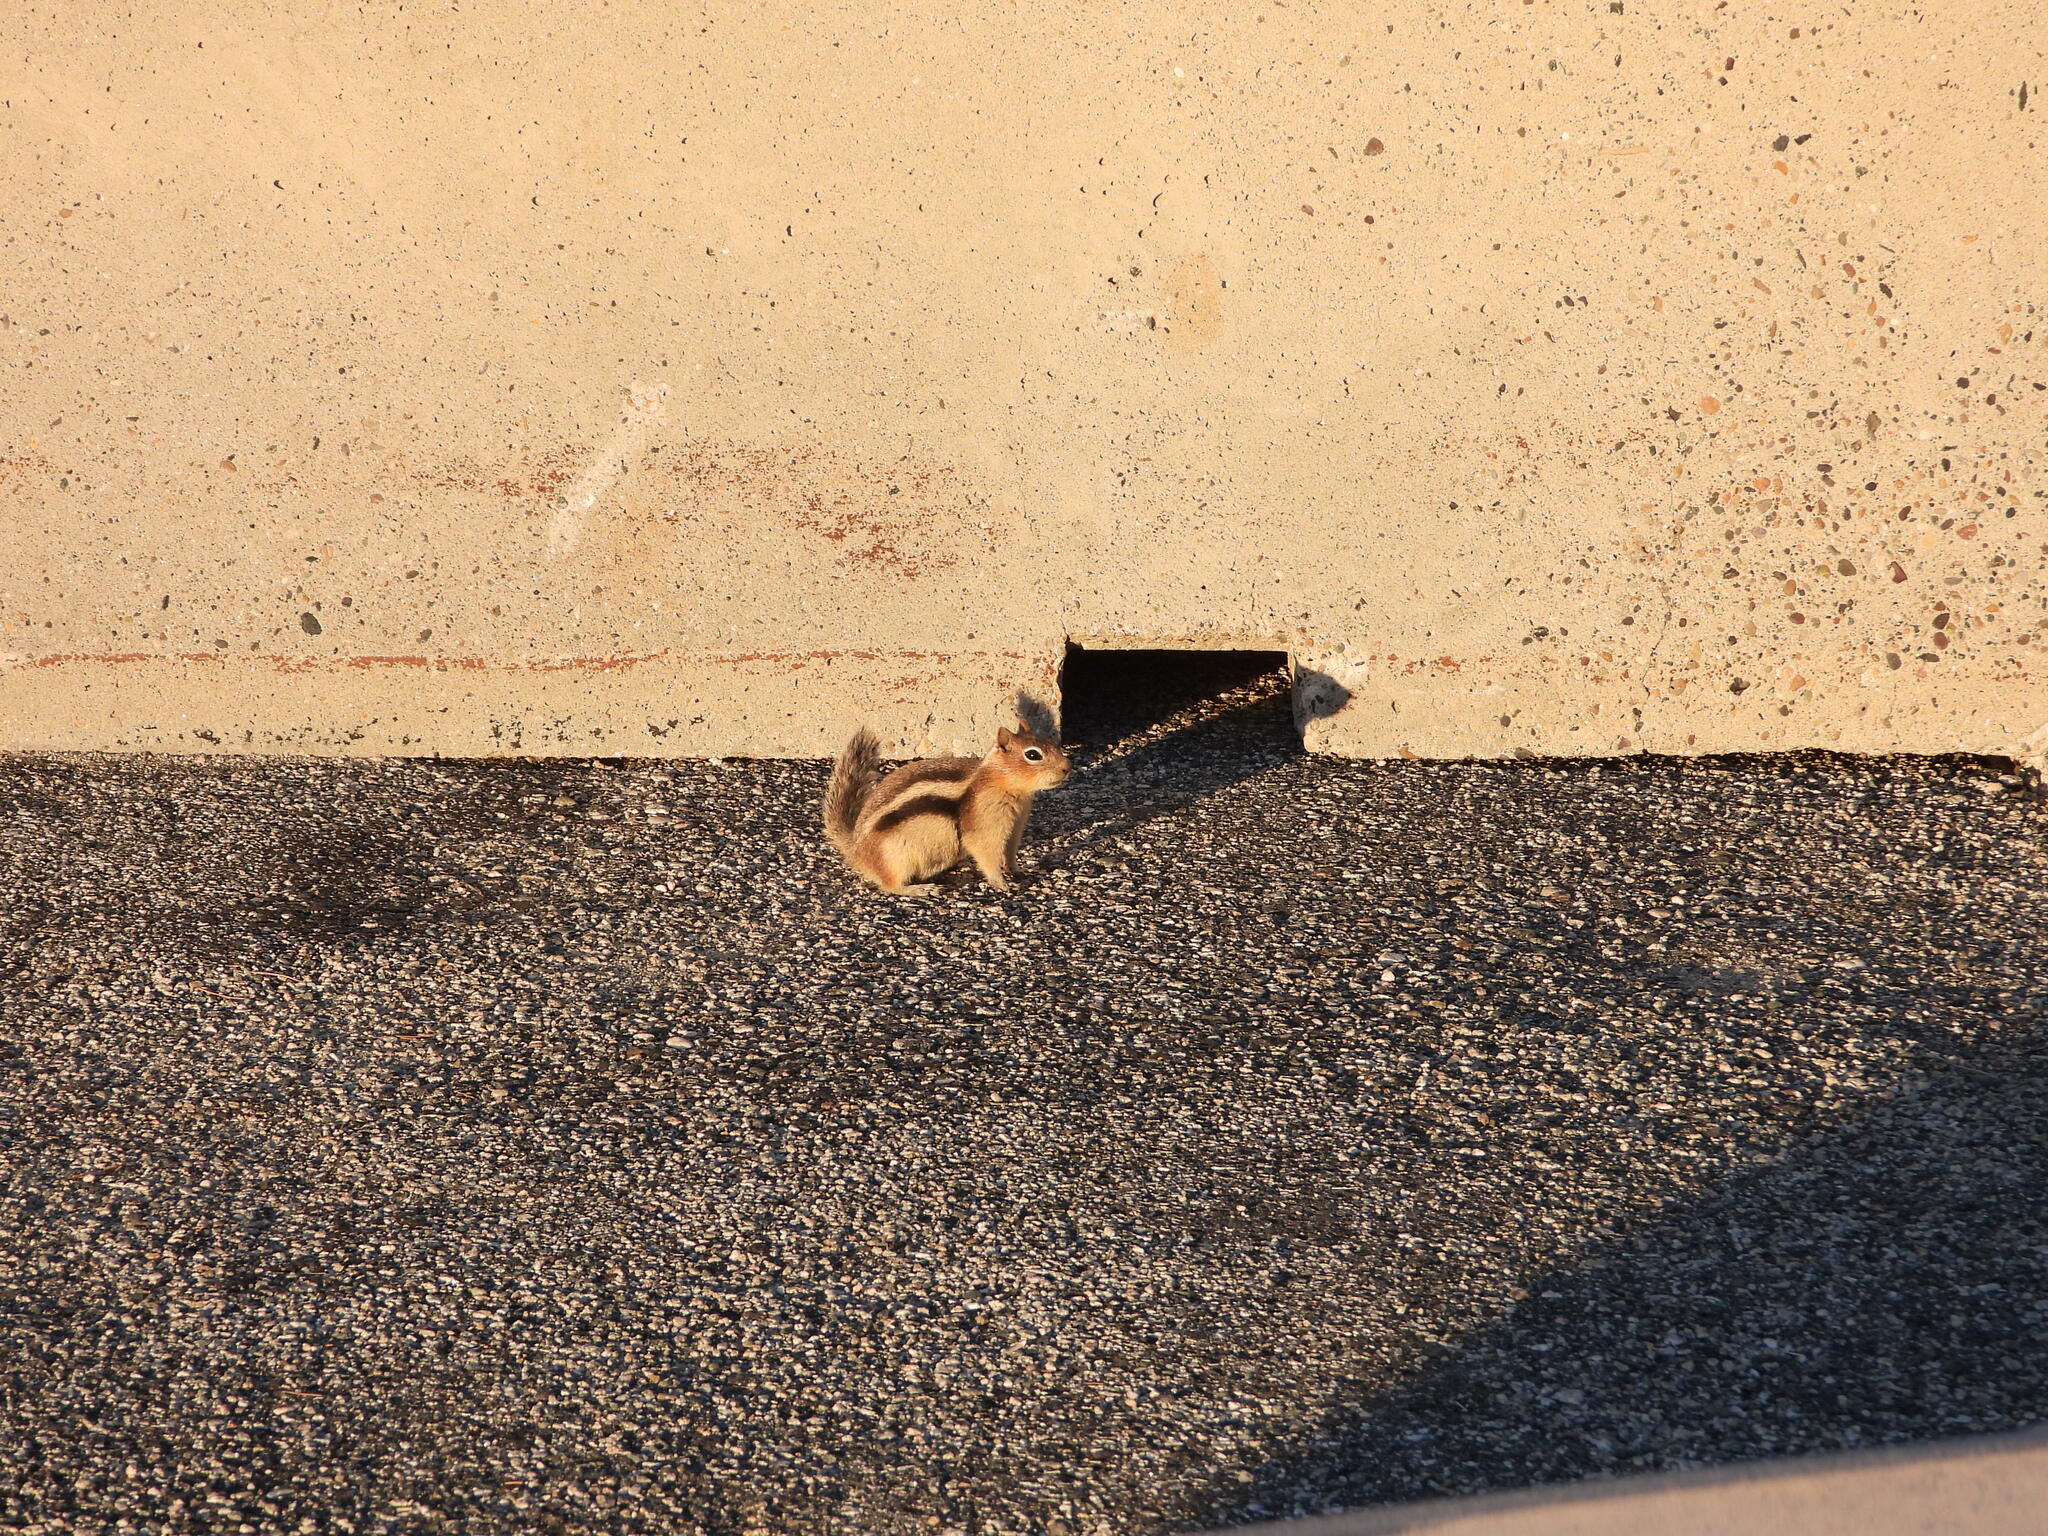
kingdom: Animalia
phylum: Chordata
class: Mammalia
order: Rodentia
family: Sciuridae
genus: Callospermophilus
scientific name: Callospermophilus lateralis
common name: Golden-mantled ground squirrel
